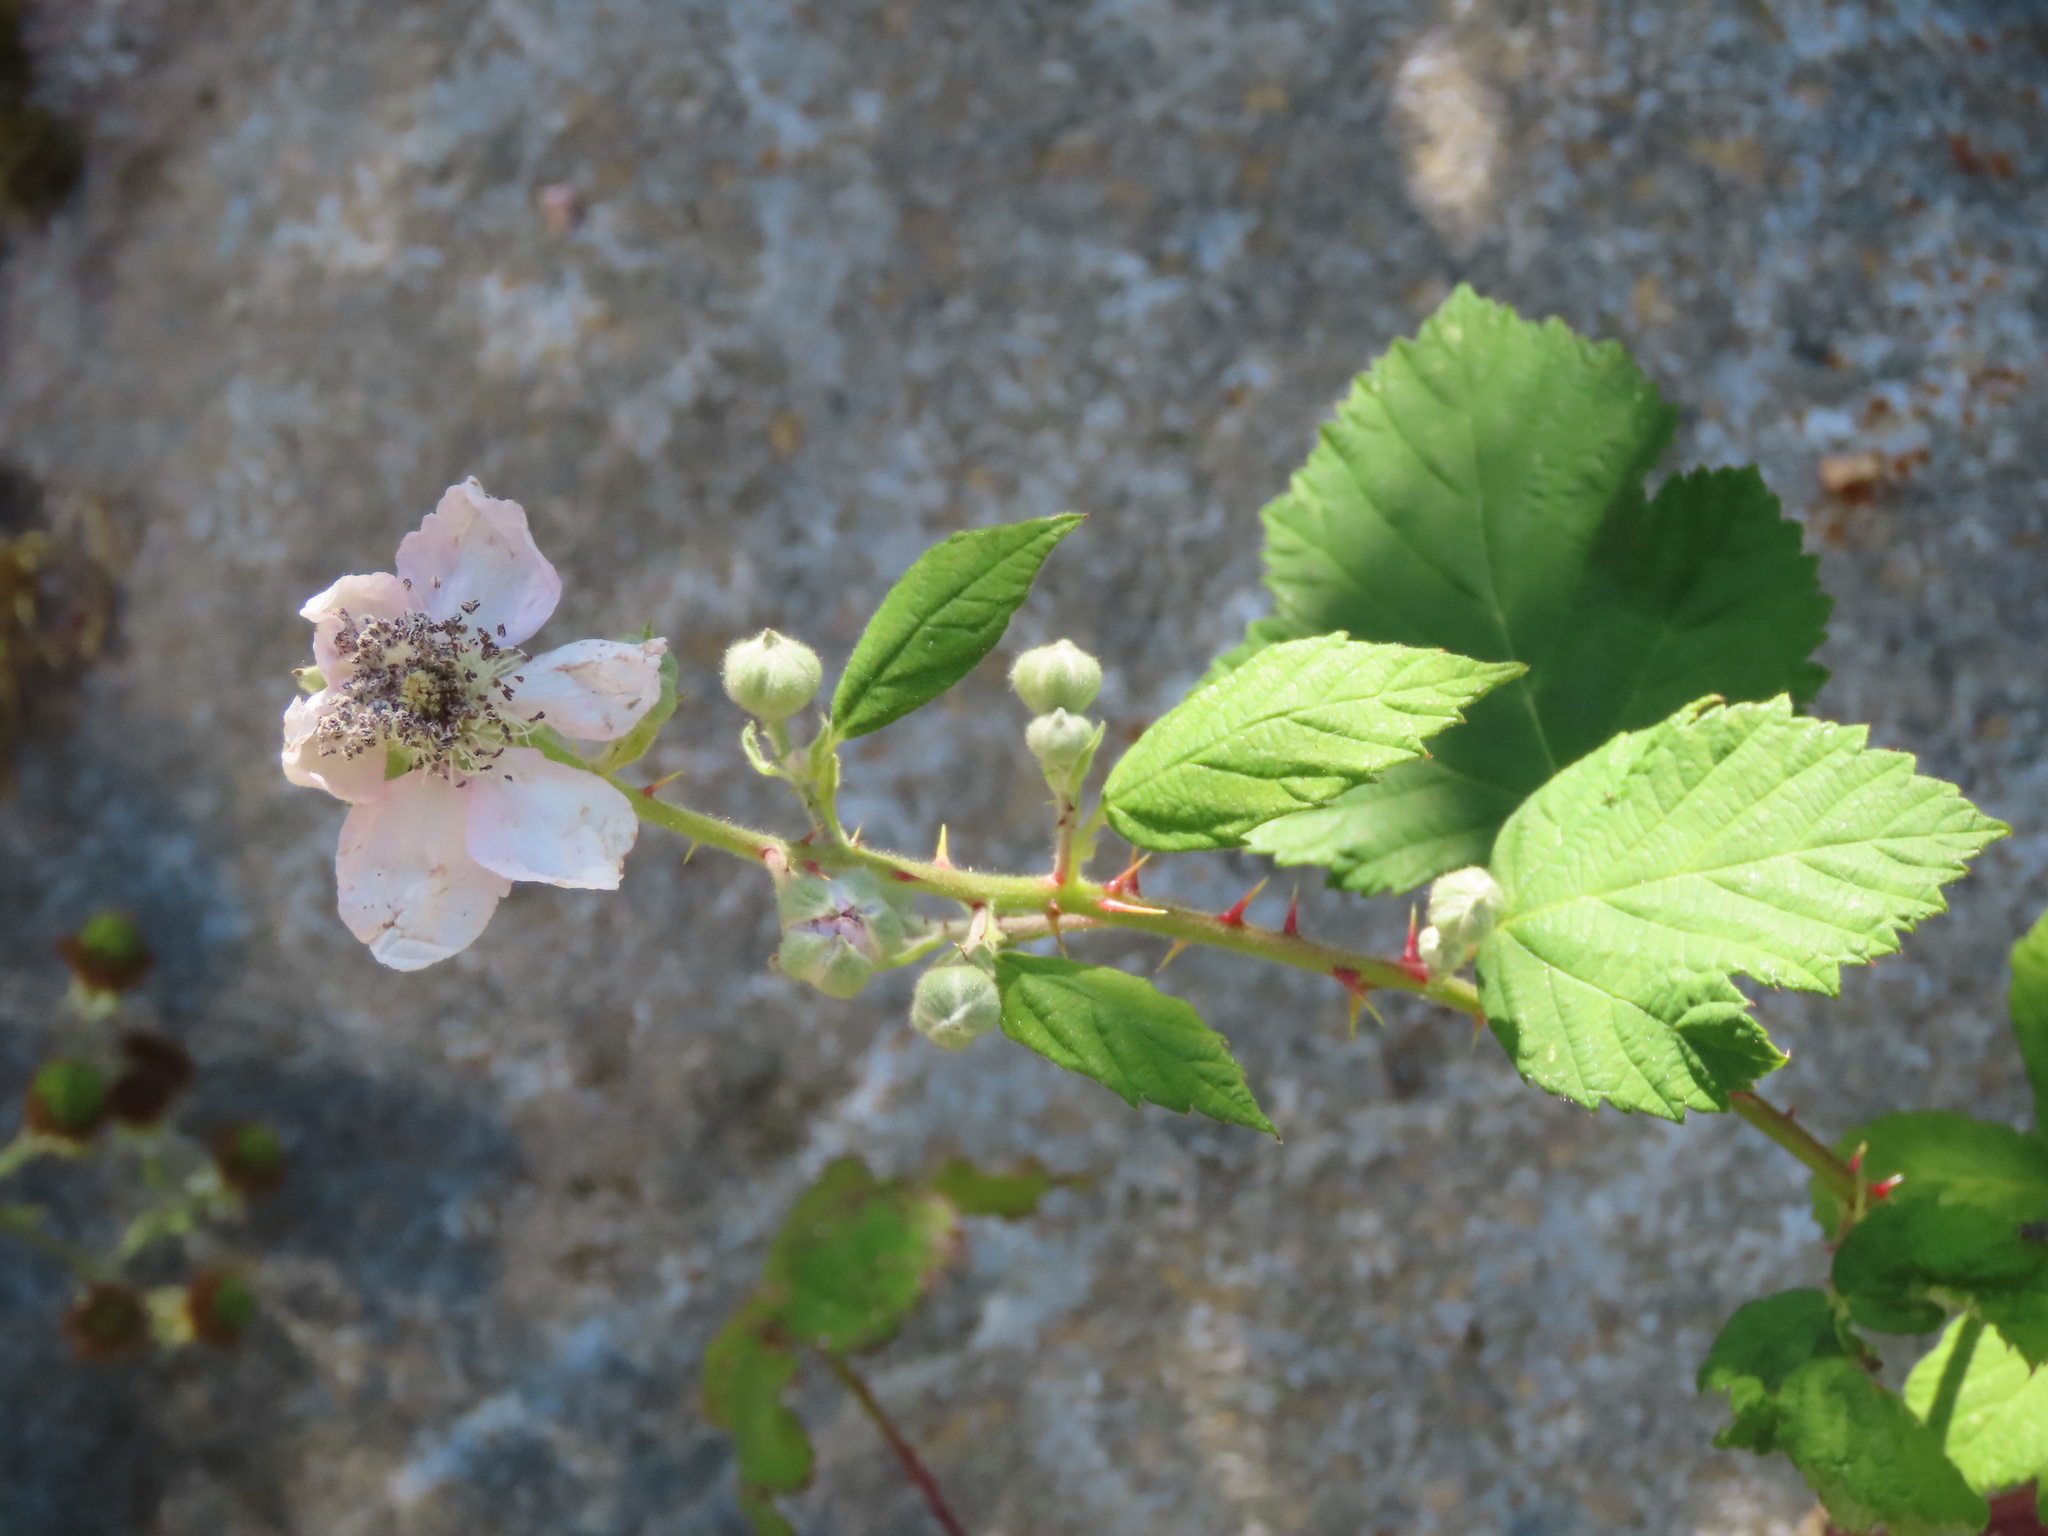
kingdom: Plantae
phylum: Tracheophyta
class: Magnoliopsida
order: Rosales
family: Rosaceae
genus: Rubus
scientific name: Rubus bifrons
